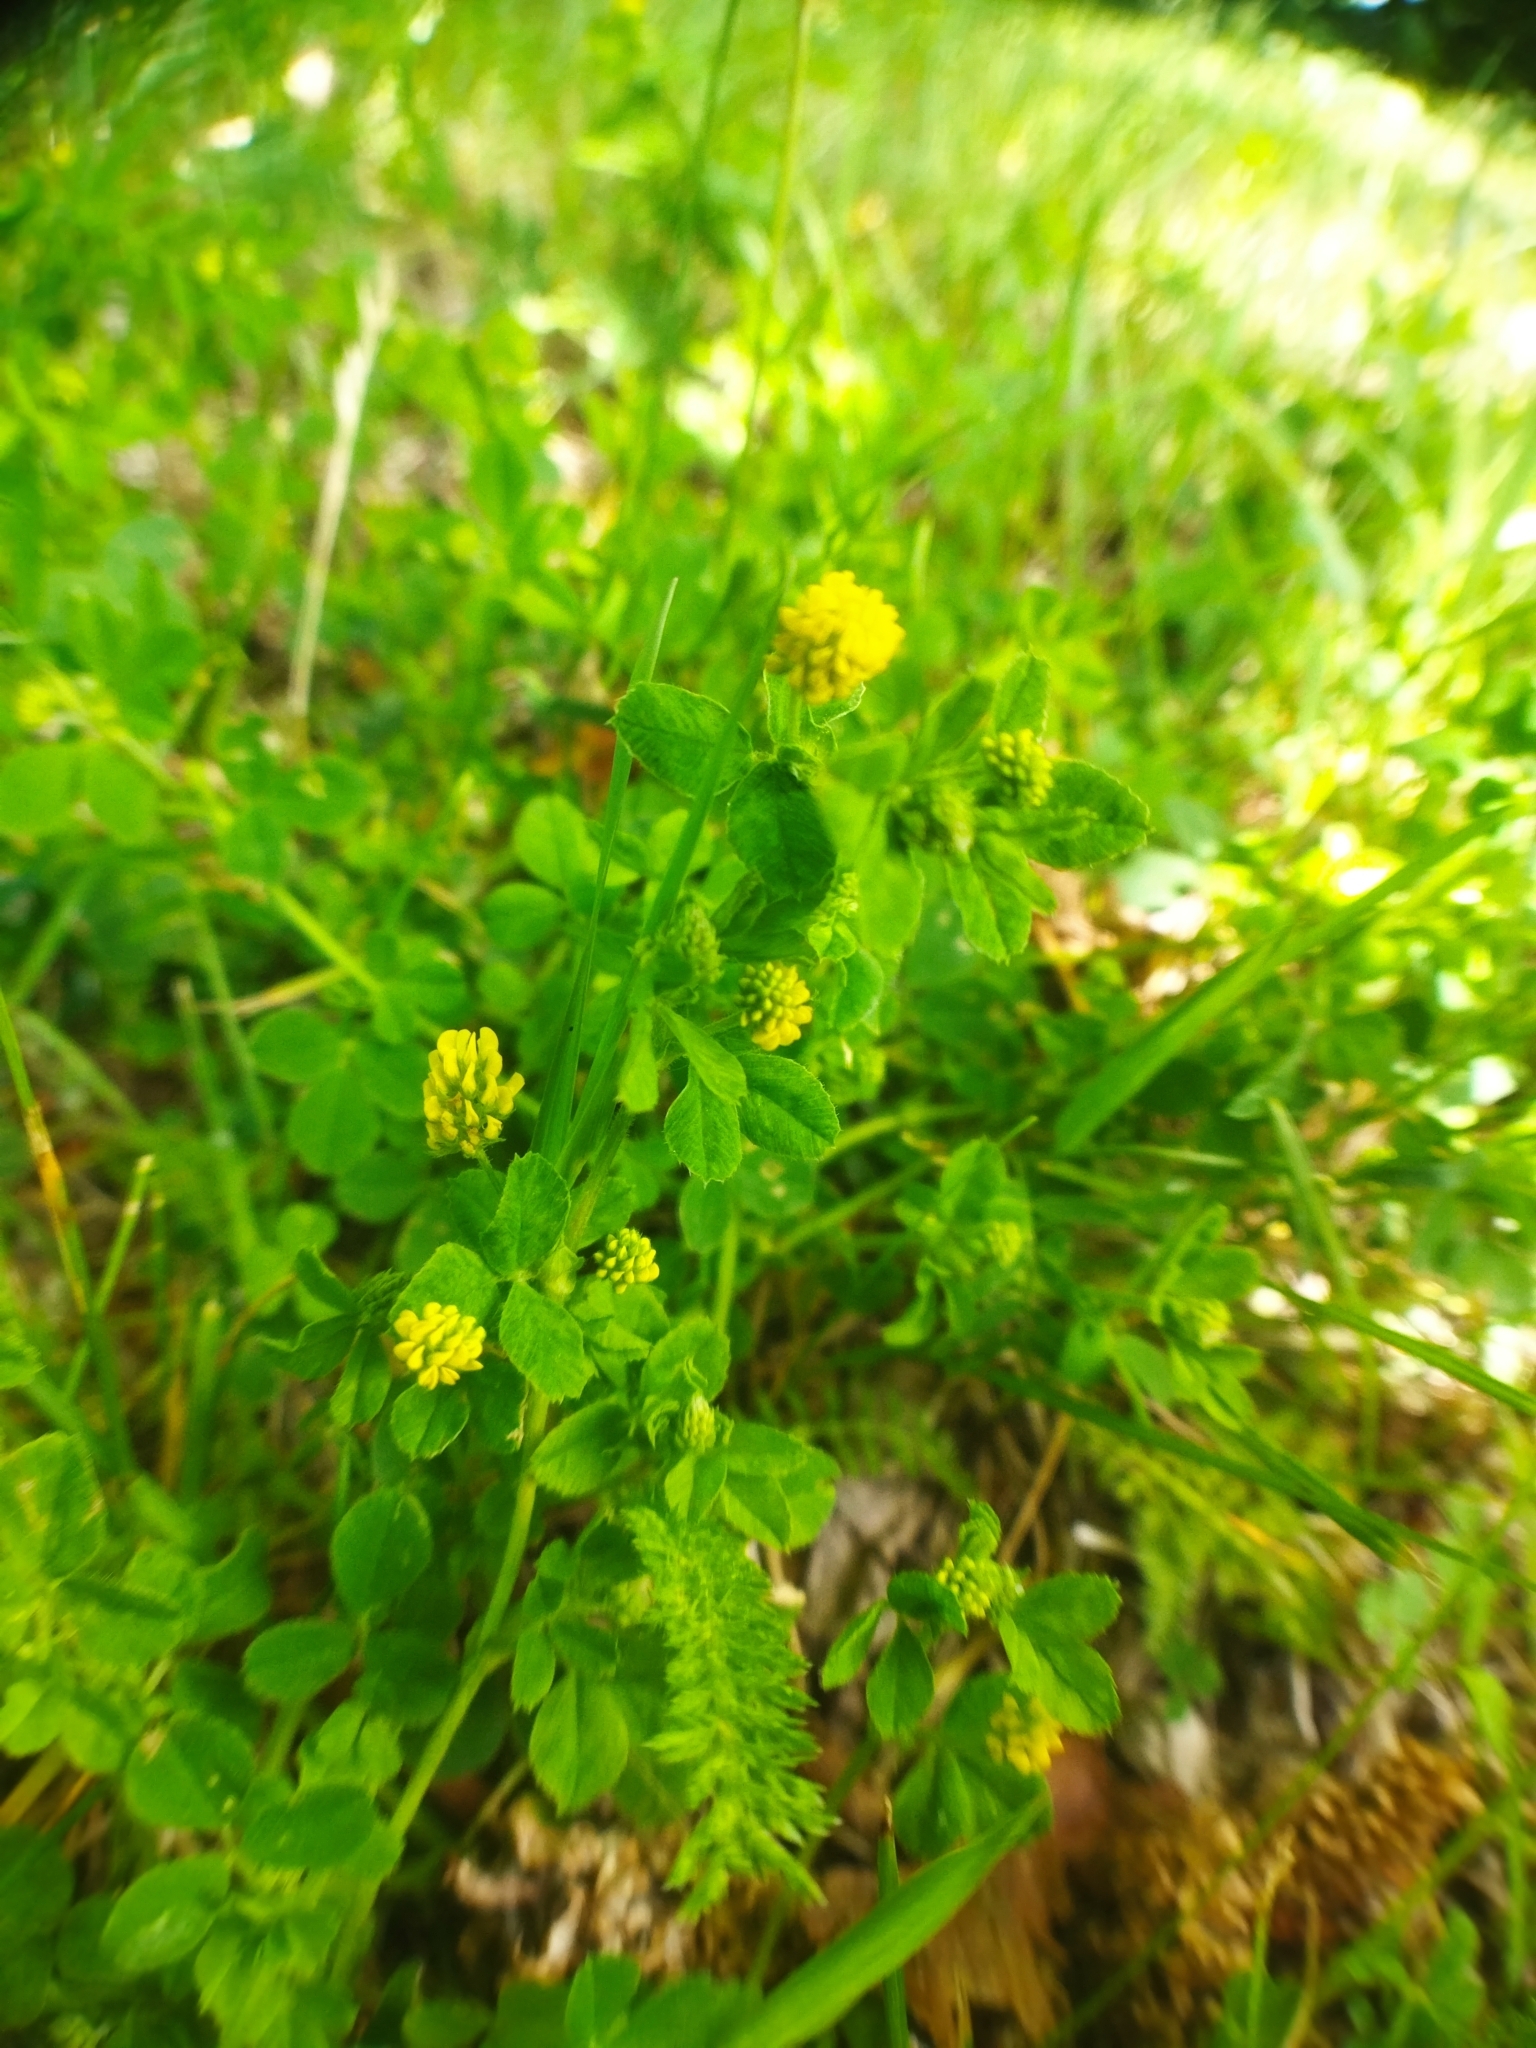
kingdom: Plantae
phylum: Tracheophyta
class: Magnoliopsida
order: Fabales
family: Fabaceae
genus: Medicago
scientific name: Medicago lupulina
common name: Black medick
